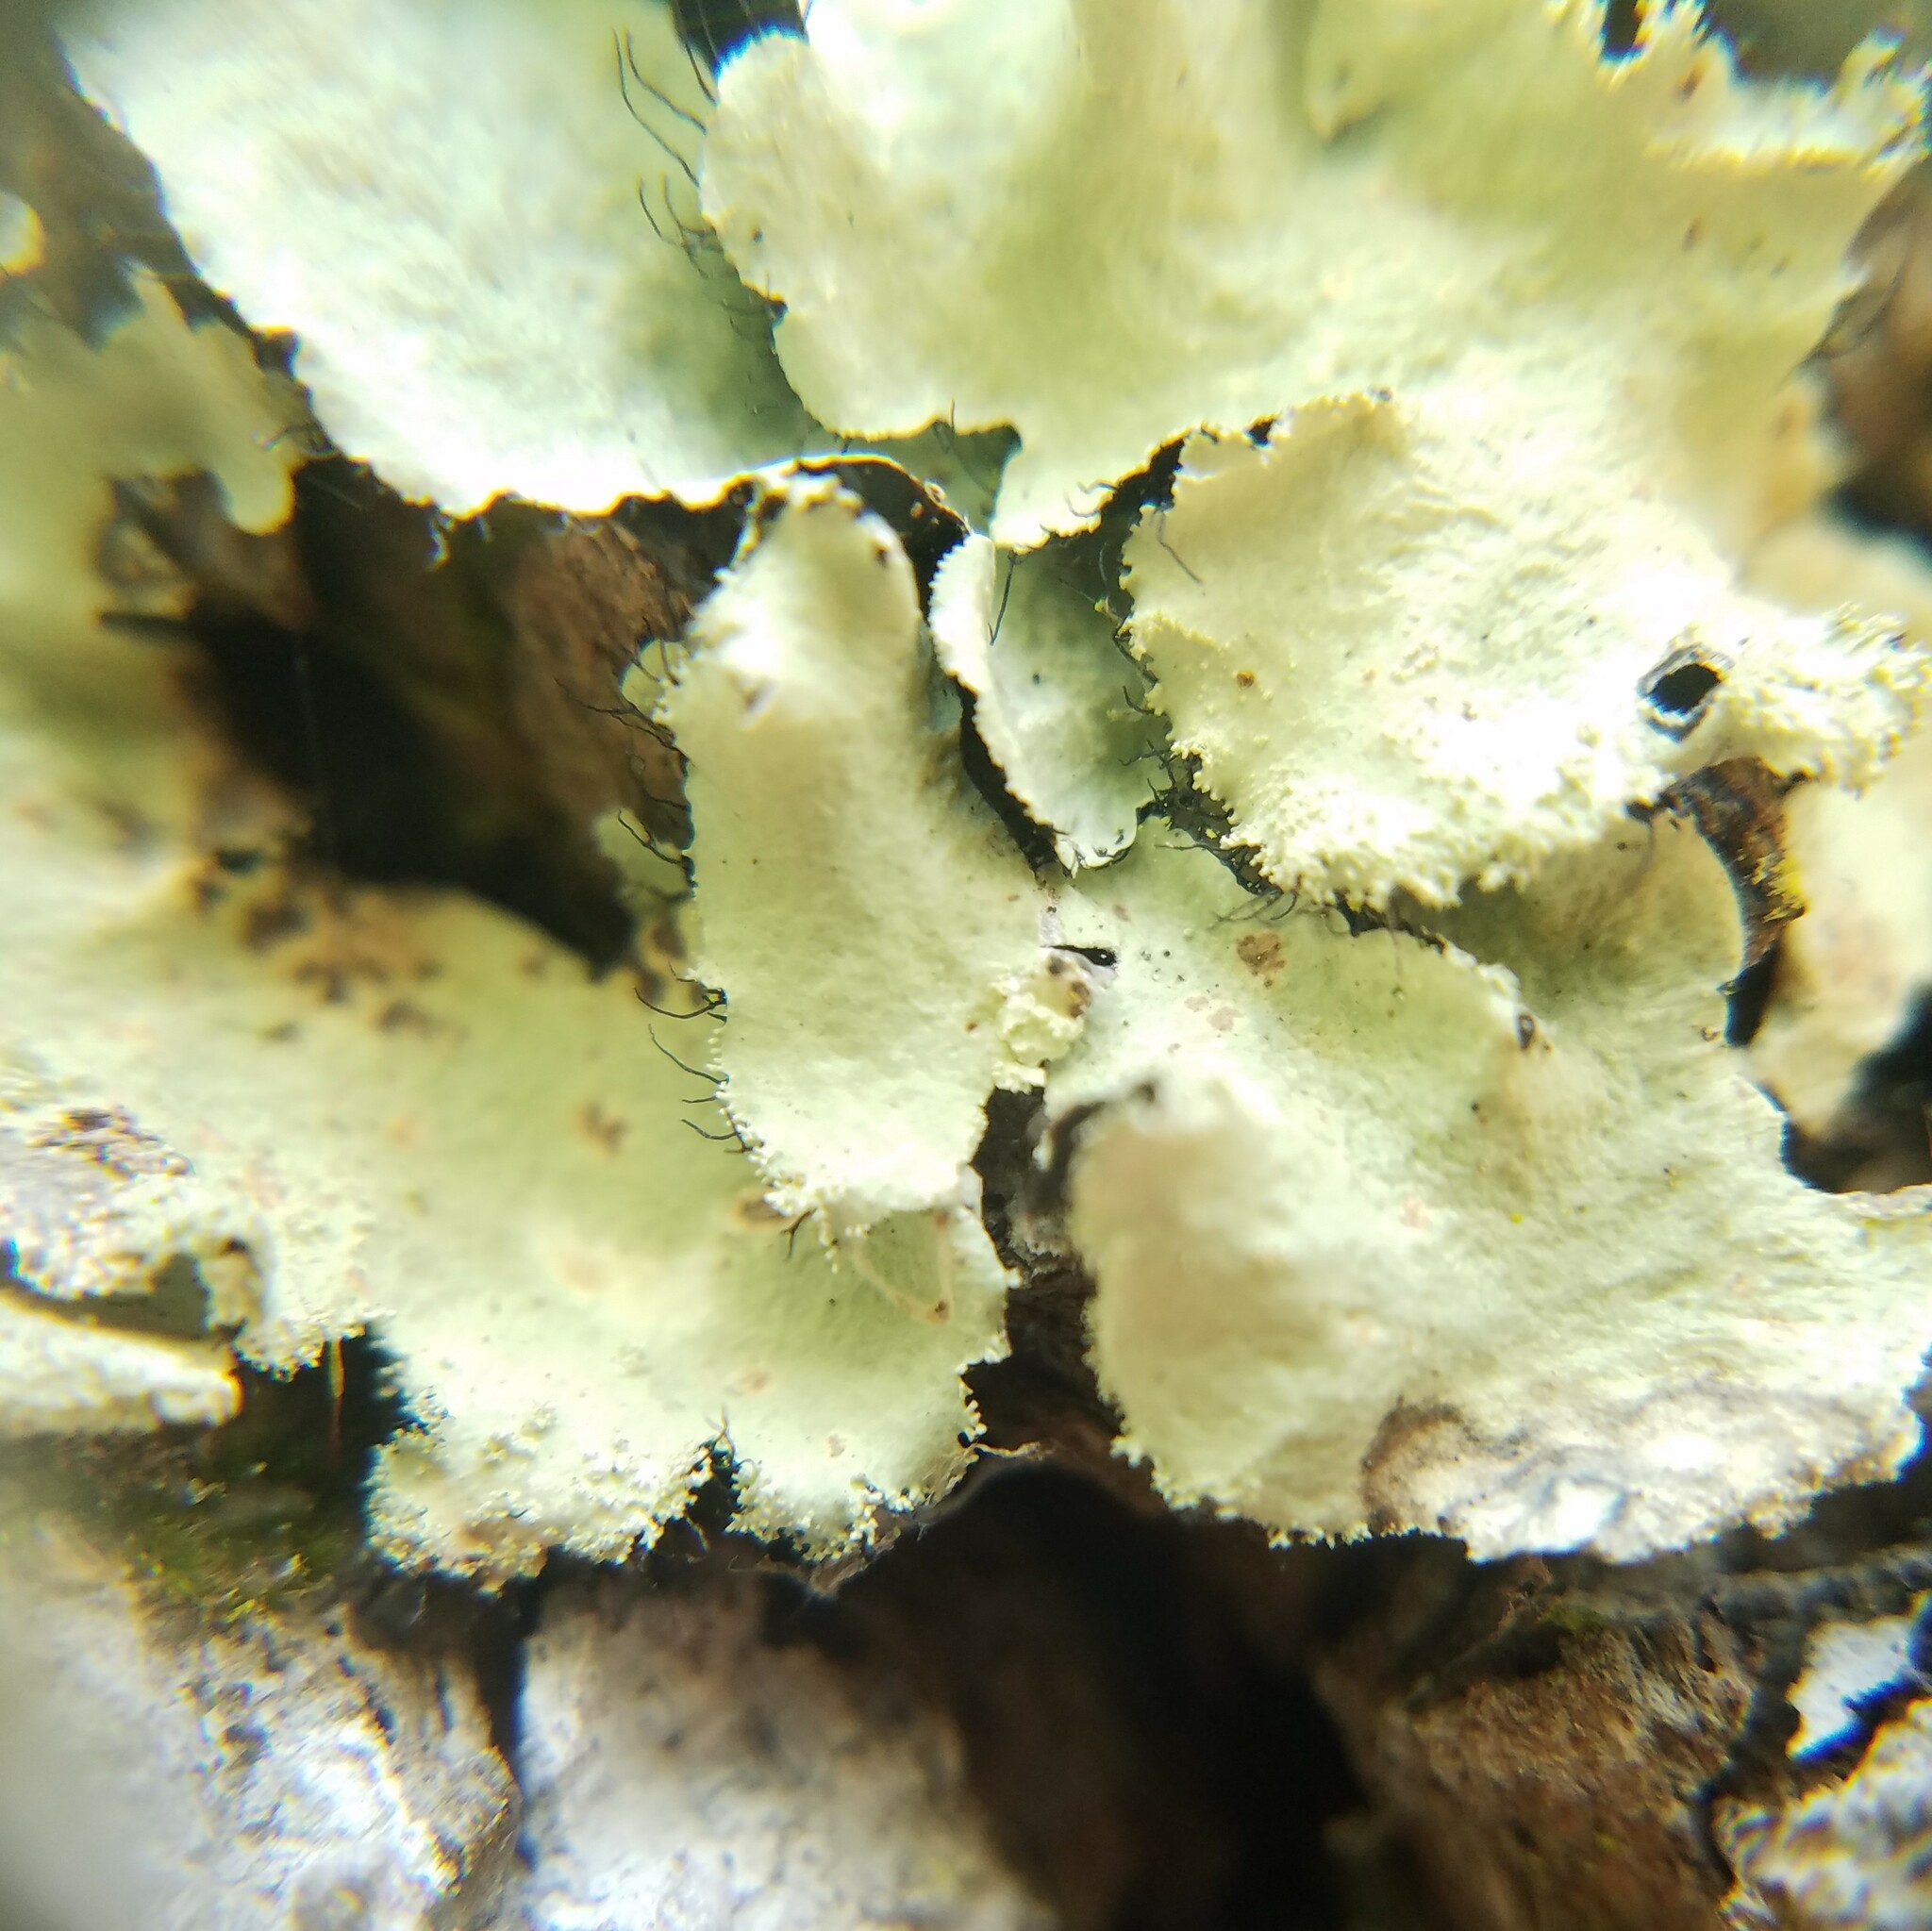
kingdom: Fungi
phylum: Ascomycota
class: Lecanoromycetes
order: Lecanorales
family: Parmeliaceae
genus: Parmotrema
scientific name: Parmotrema xanthinum
